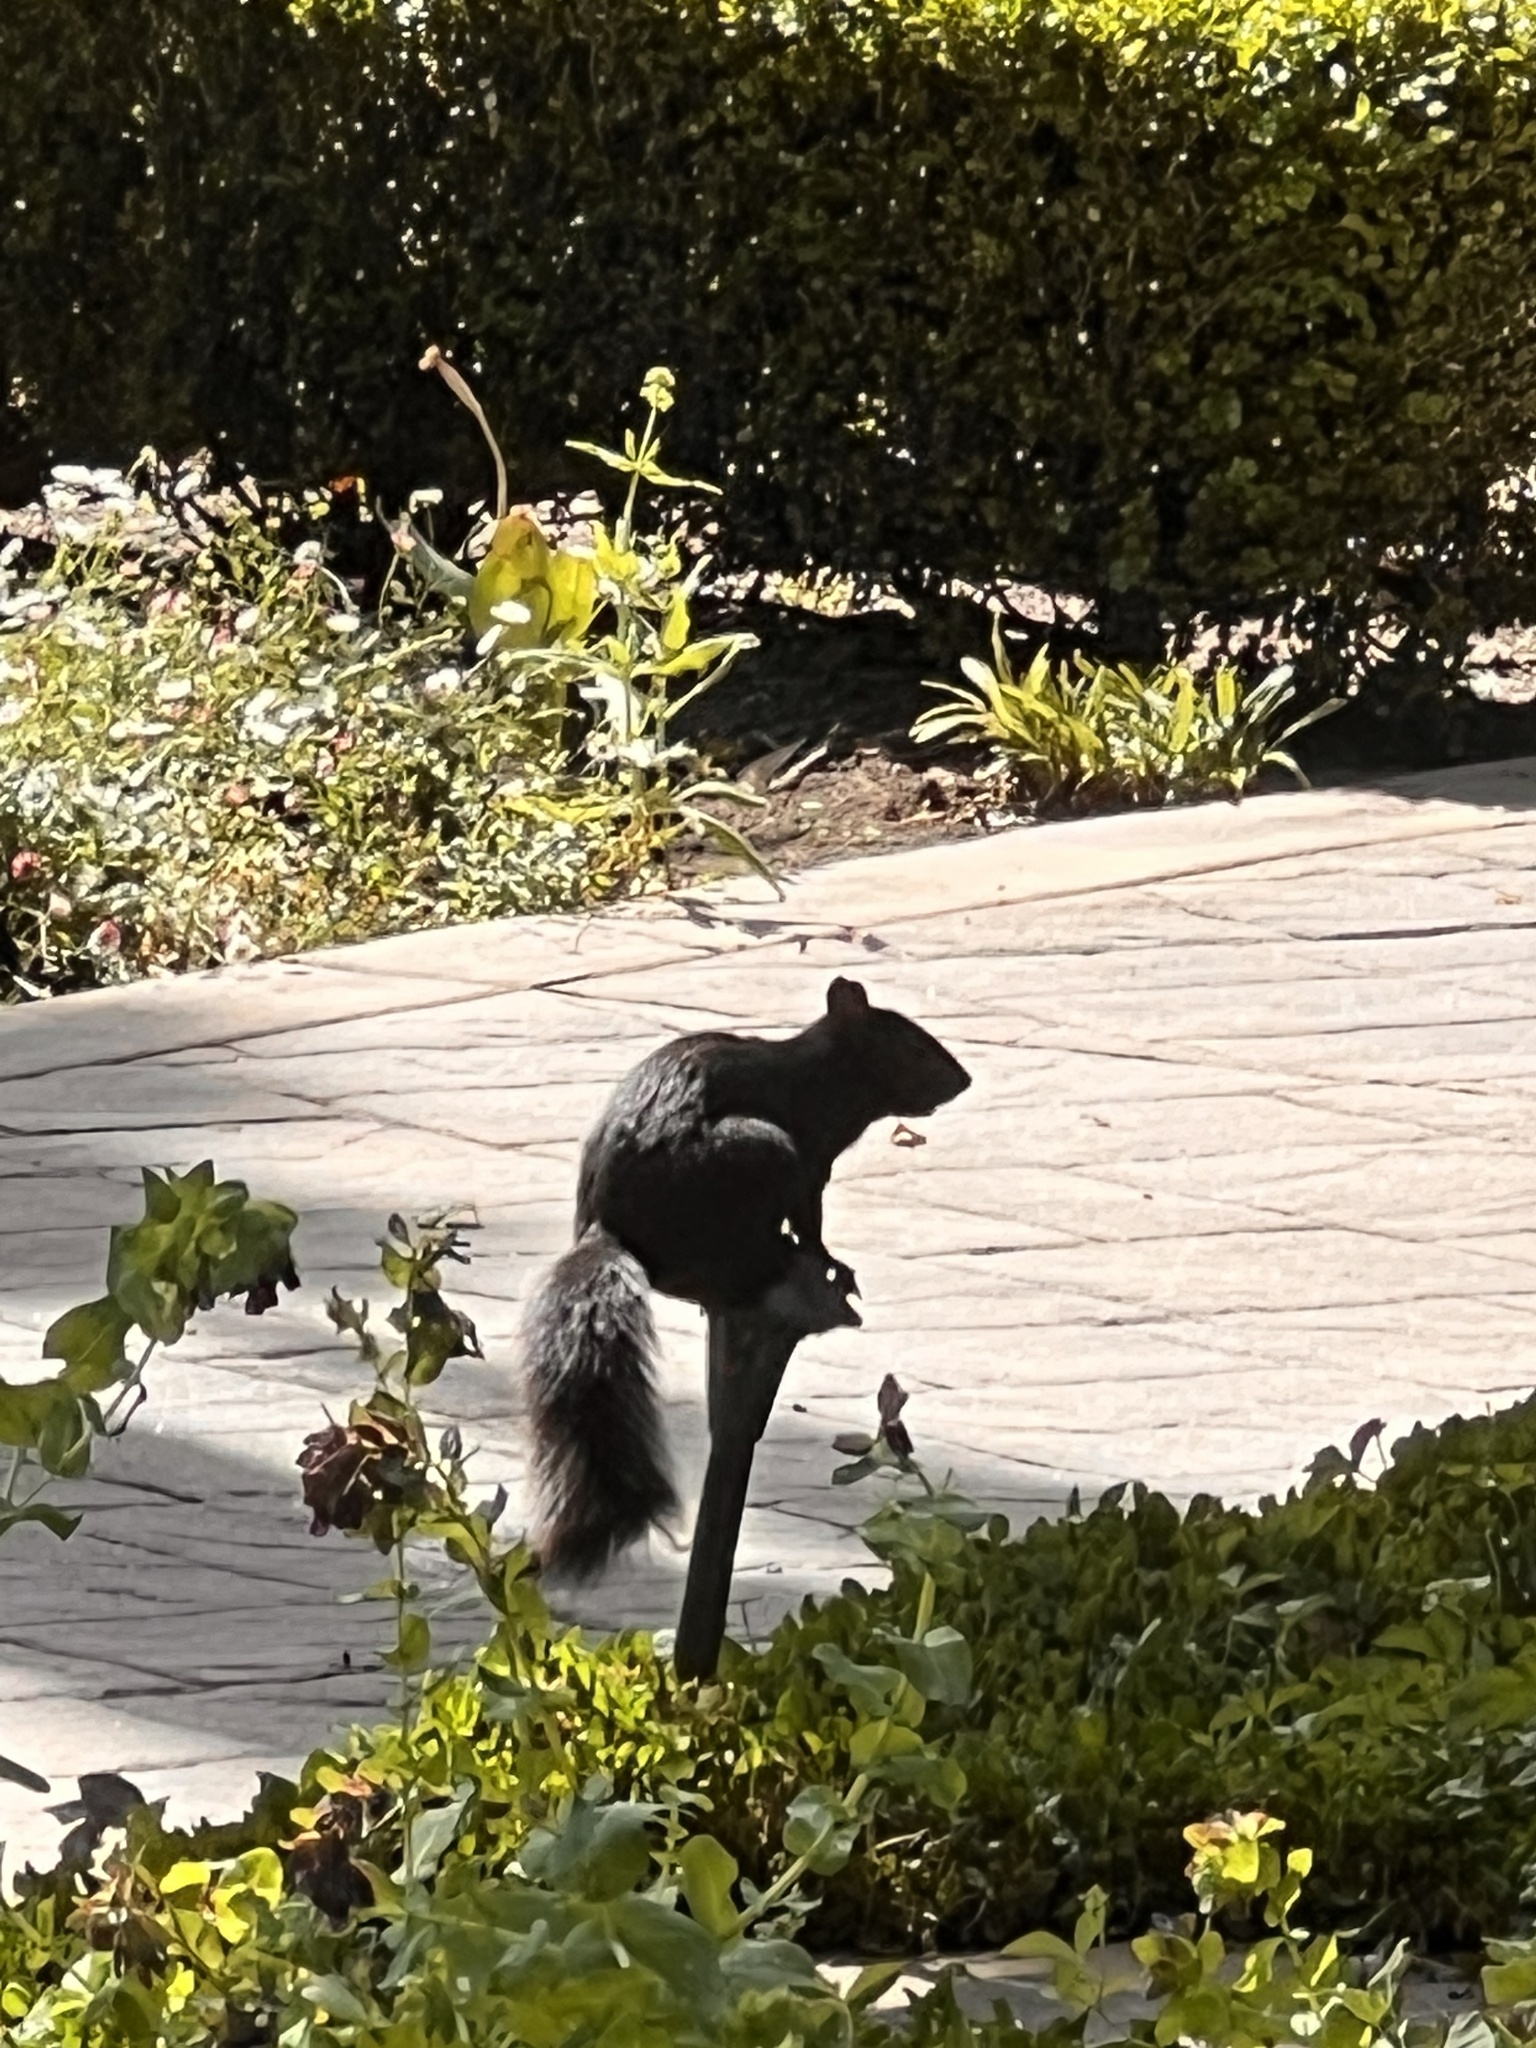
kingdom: Animalia
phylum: Chordata
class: Mammalia
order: Rodentia
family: Sciuridae
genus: Sciurus
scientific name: Sciurus carolinensis
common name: Eastern gray squirrel
